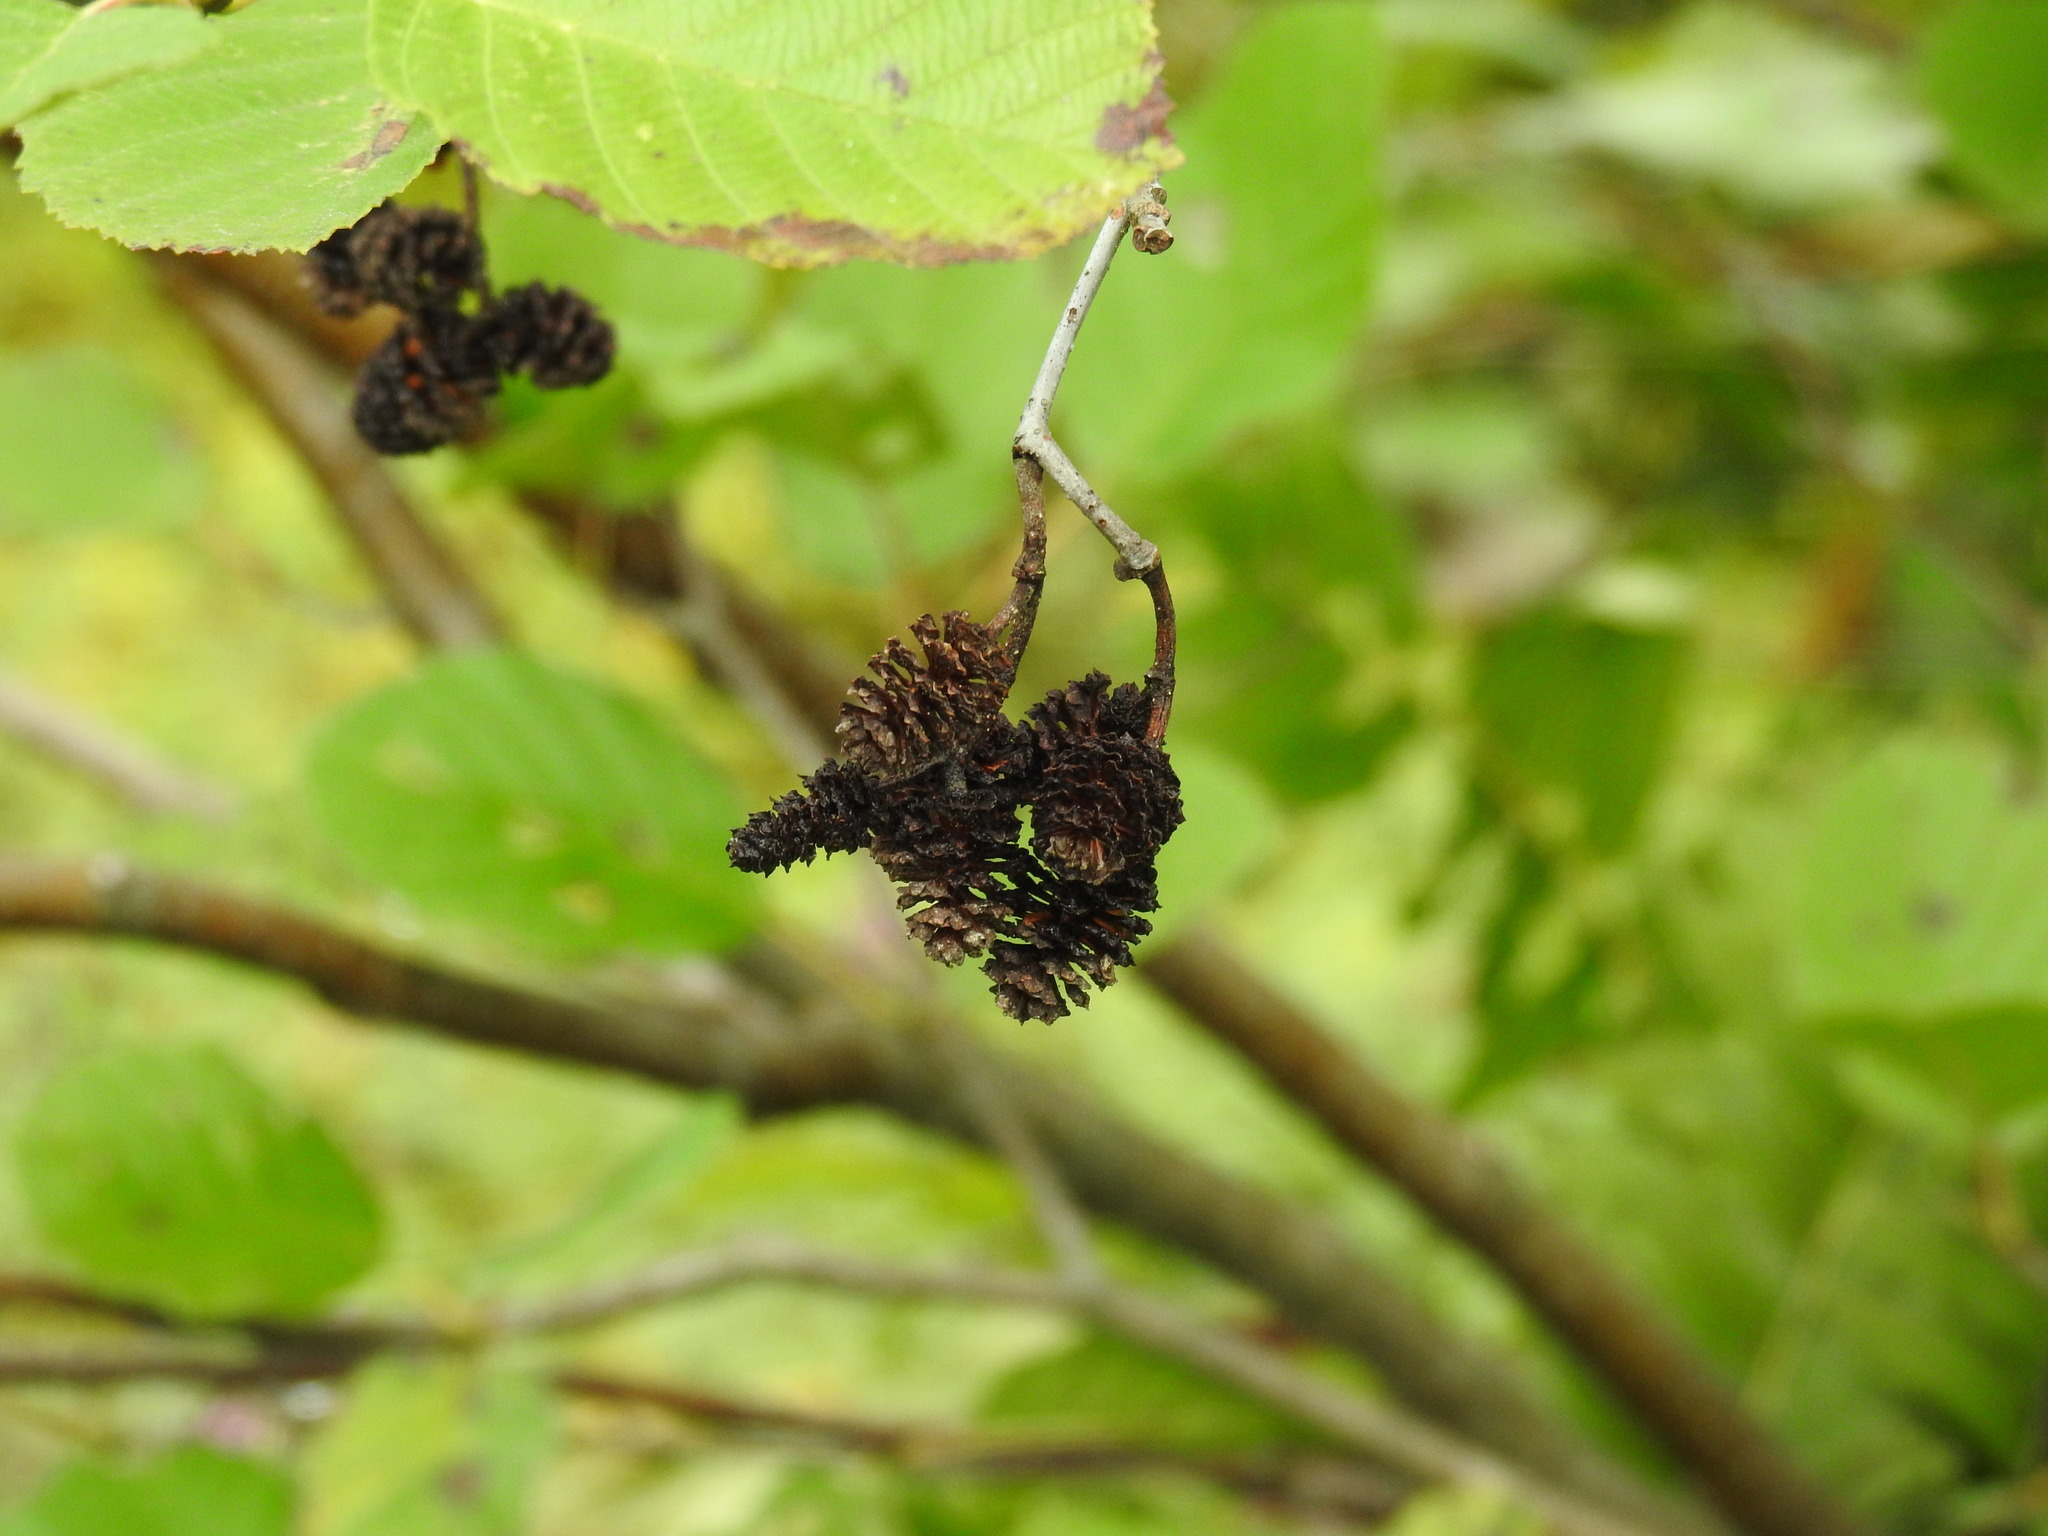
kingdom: Plantae
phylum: Tracheophyta
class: Magnoliopsida
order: Fagales
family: Betulaceae
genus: Alnus
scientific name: Alnus incana
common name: Grey alder
